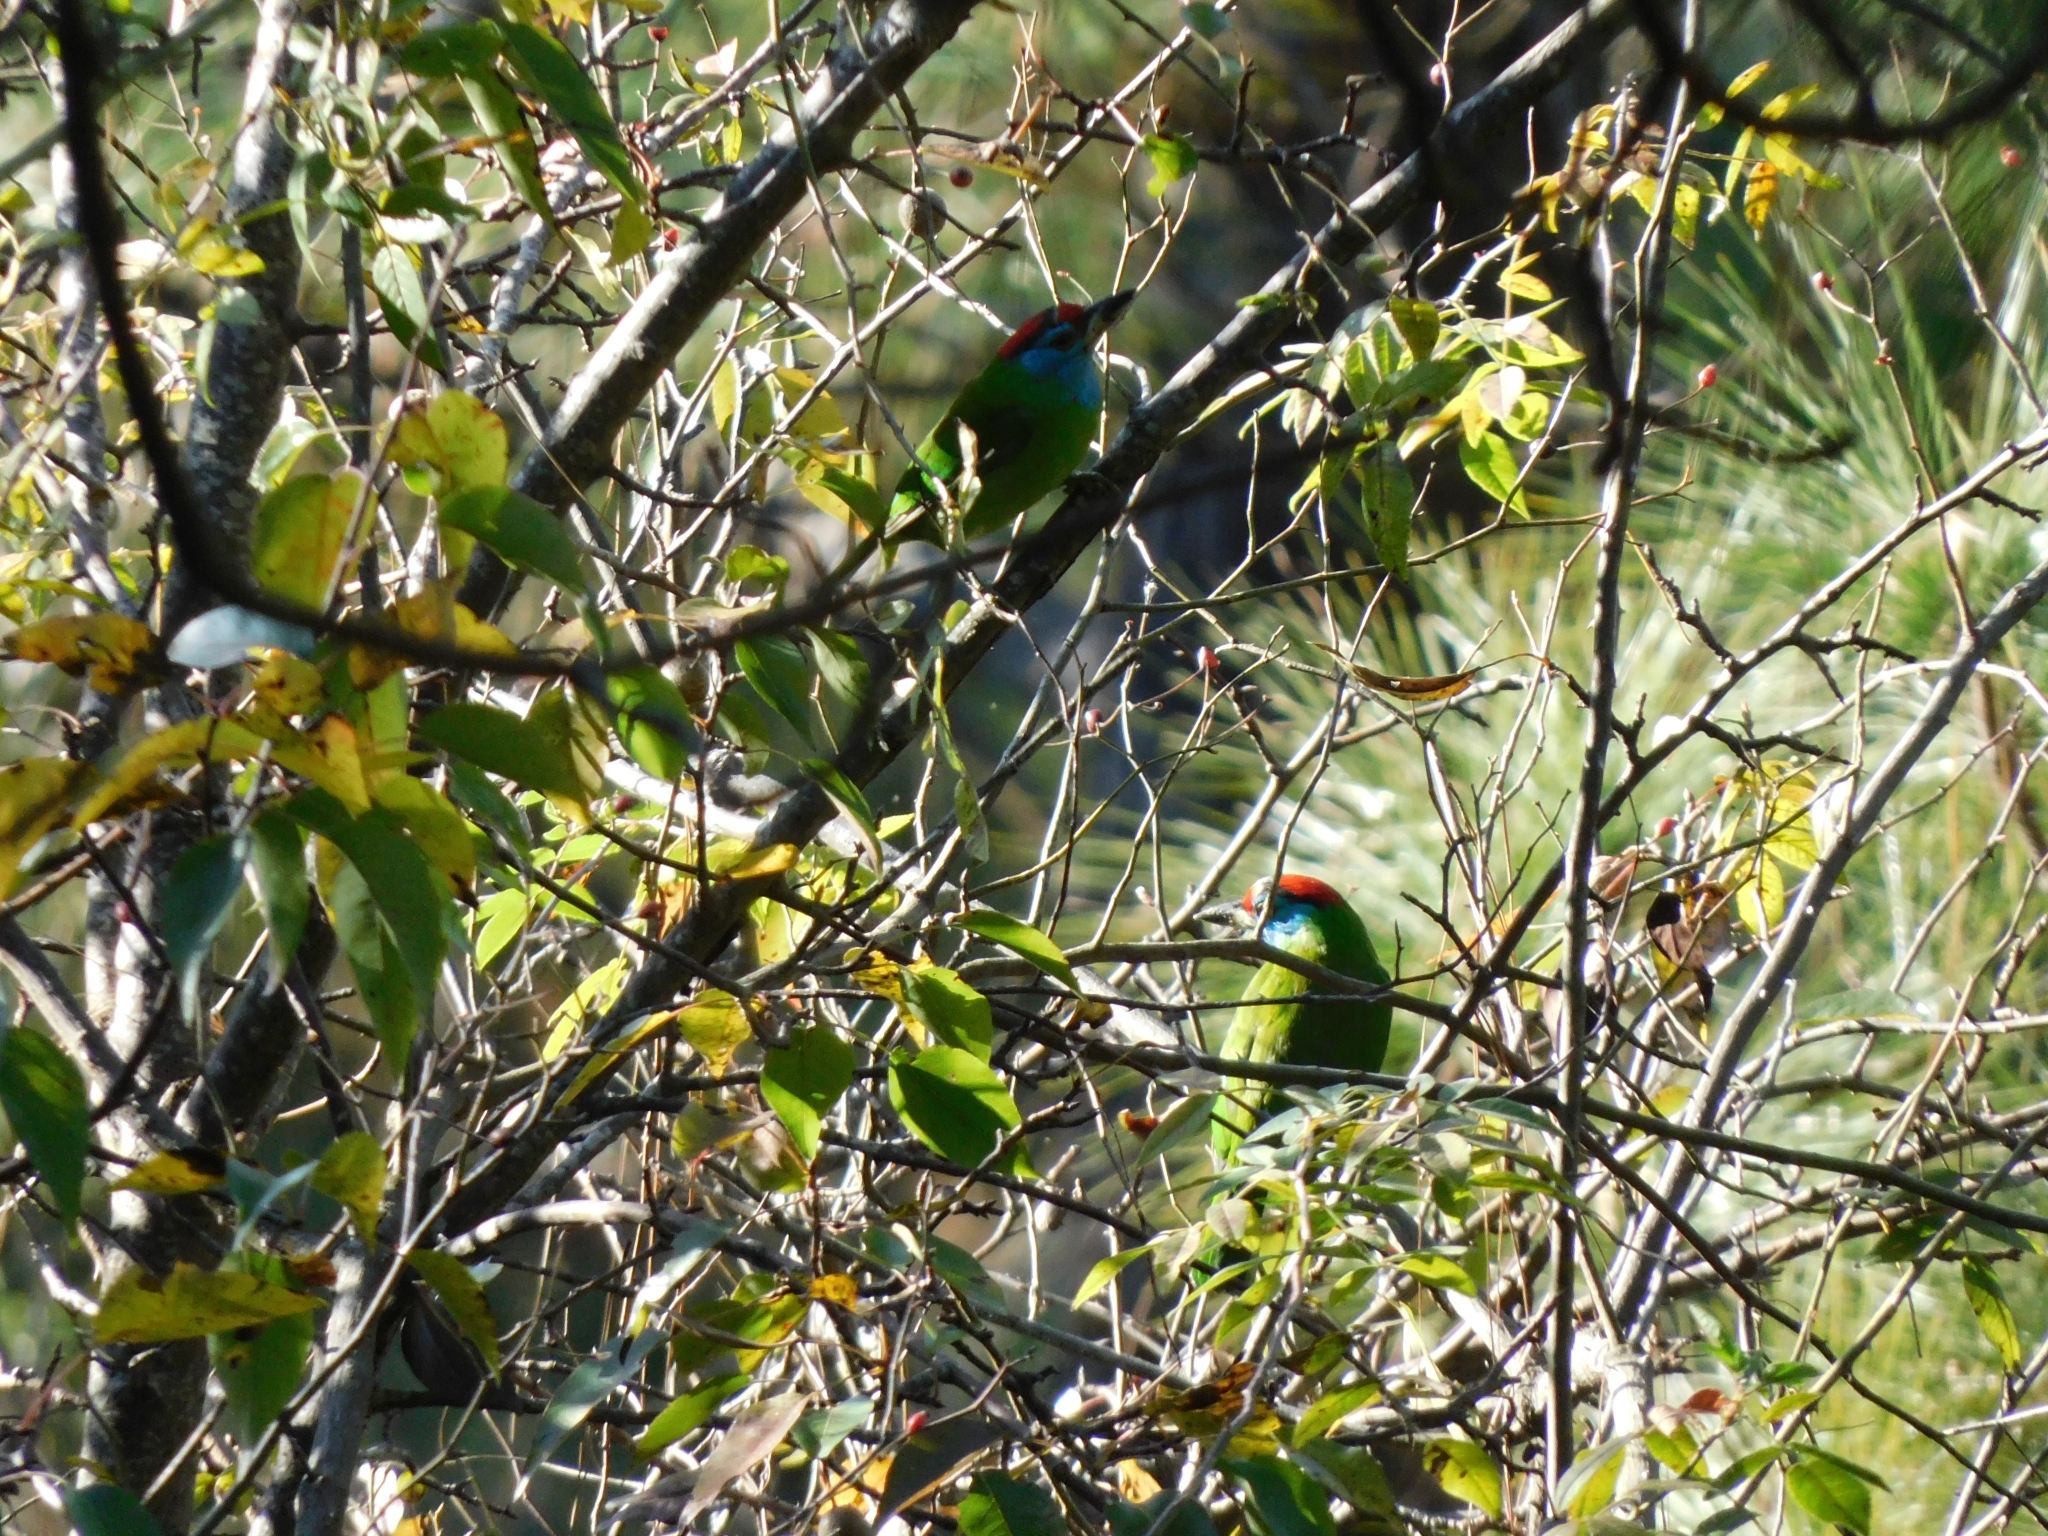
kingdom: Animalia
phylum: Chordata
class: Aves
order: Piciformes
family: Megalaimidae
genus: Psilopogon
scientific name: Psilopogon asiaticus
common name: Blue-throated barbet
